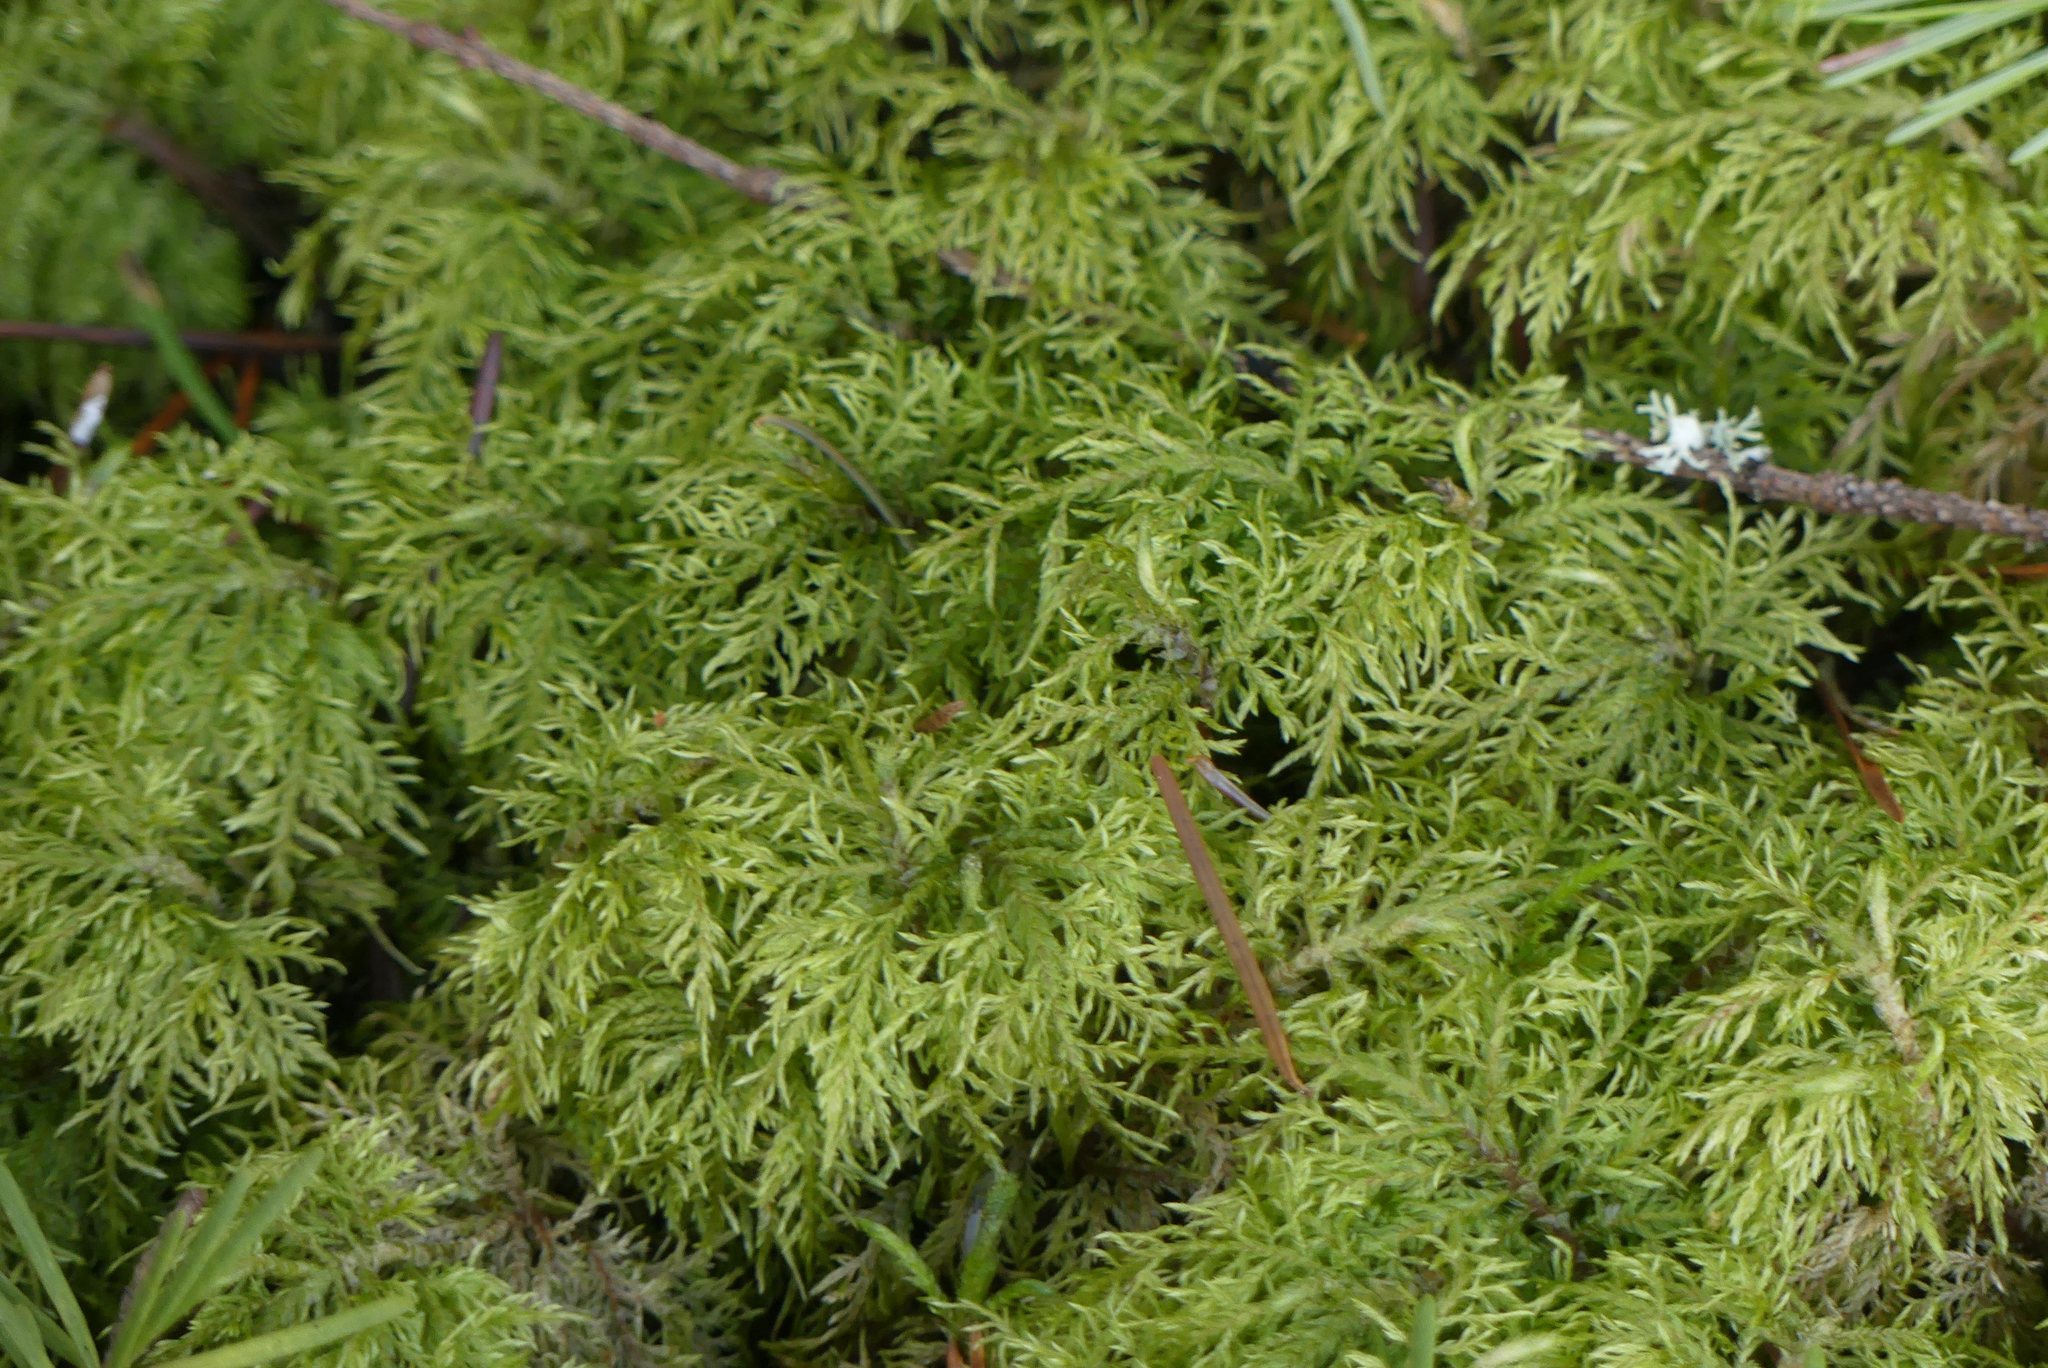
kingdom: Plantae
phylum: Bryophyta
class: Bryopsida
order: Hypnales
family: Hylocomiaceae
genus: Hylocomium
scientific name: Hylocomium splendens
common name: Stairstep moss
